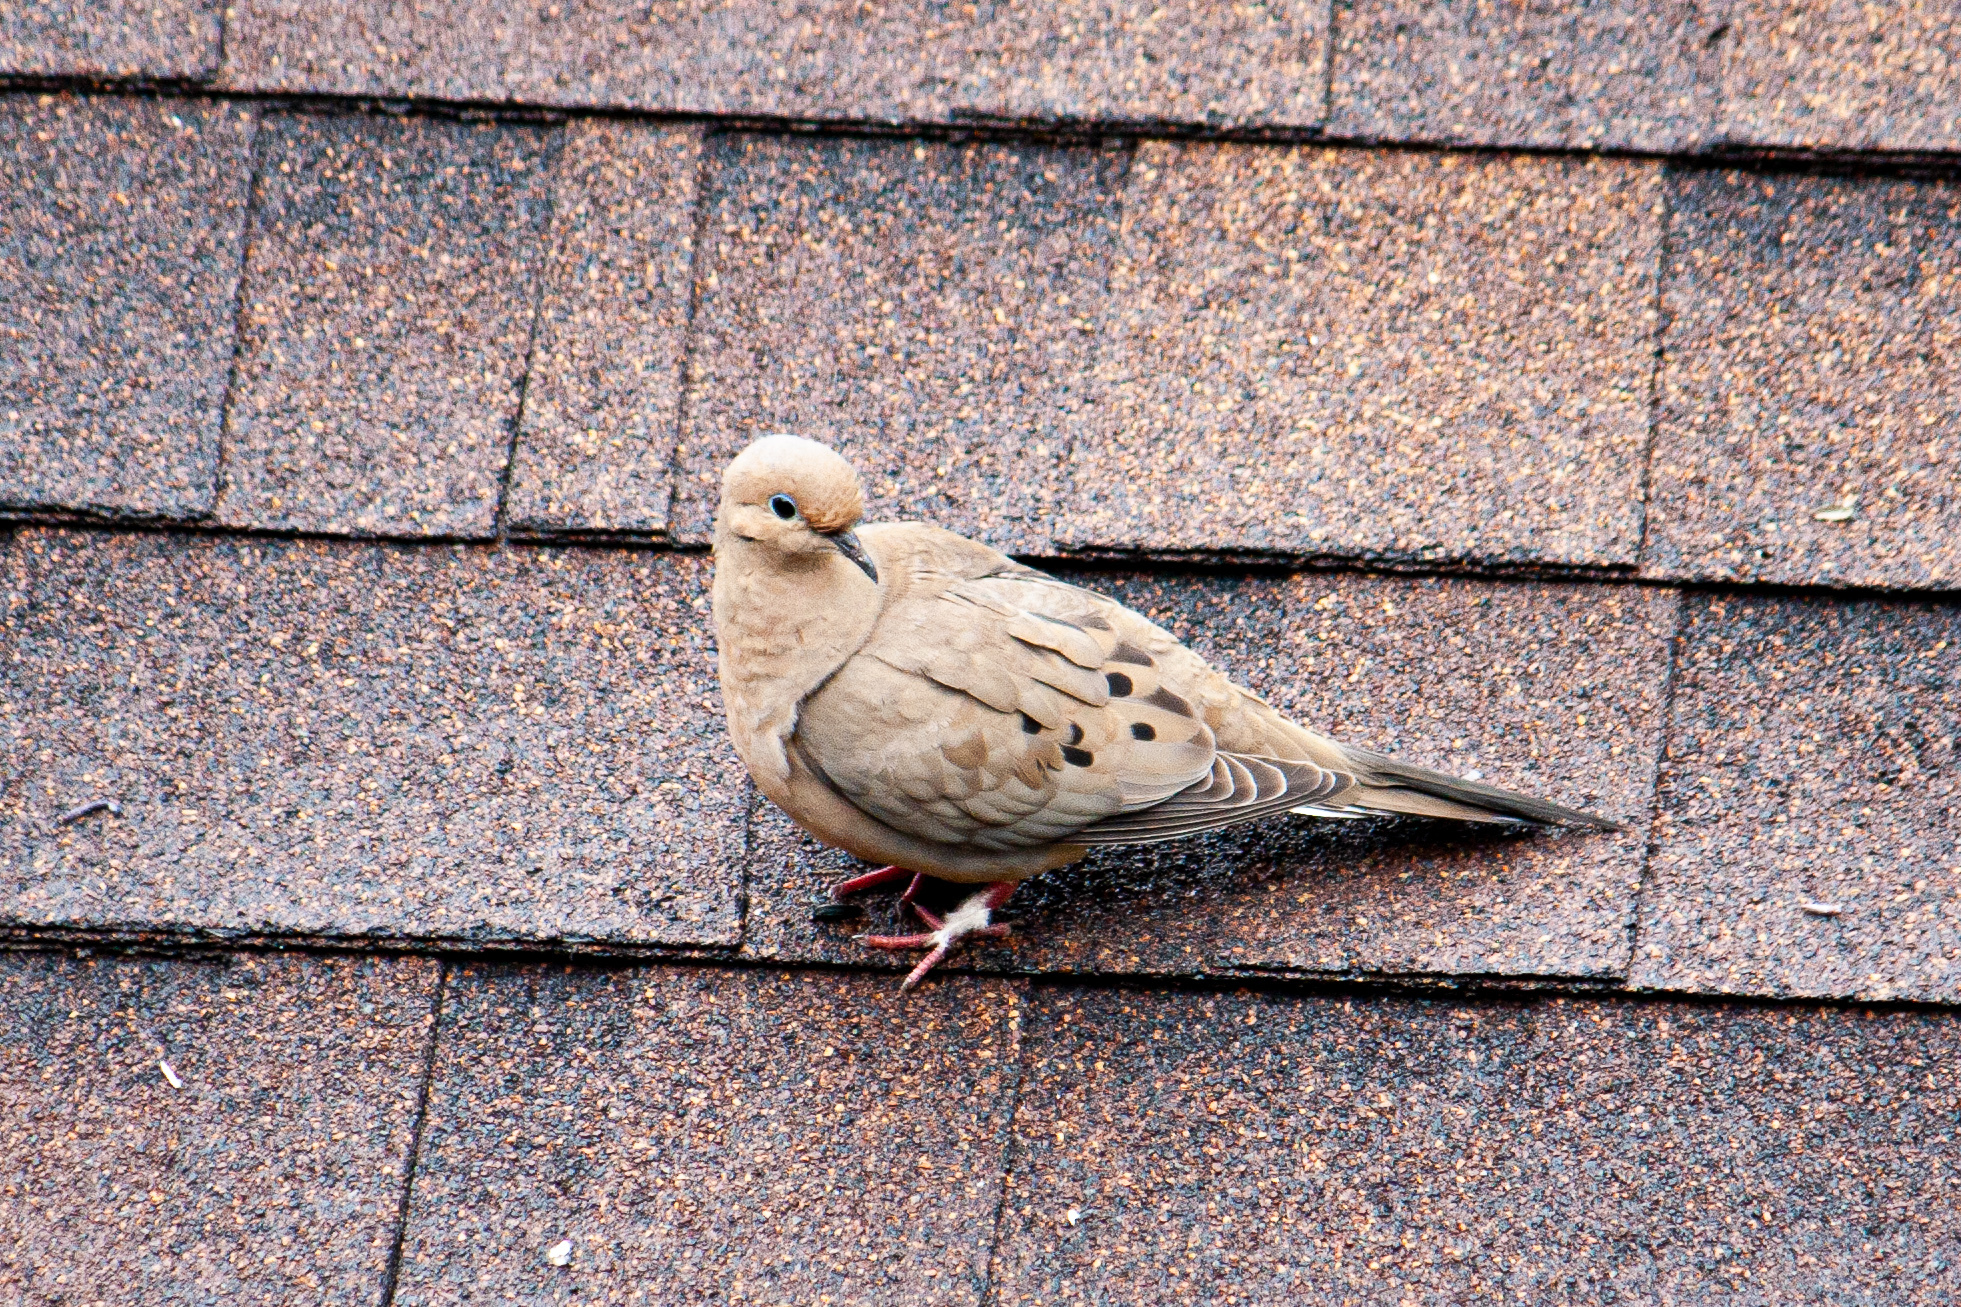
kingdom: Animalia
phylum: Chordata
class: Aves
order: Columbiformes
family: Columbidae
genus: Zenaida
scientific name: Zenaida macroura
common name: Mourning dove
